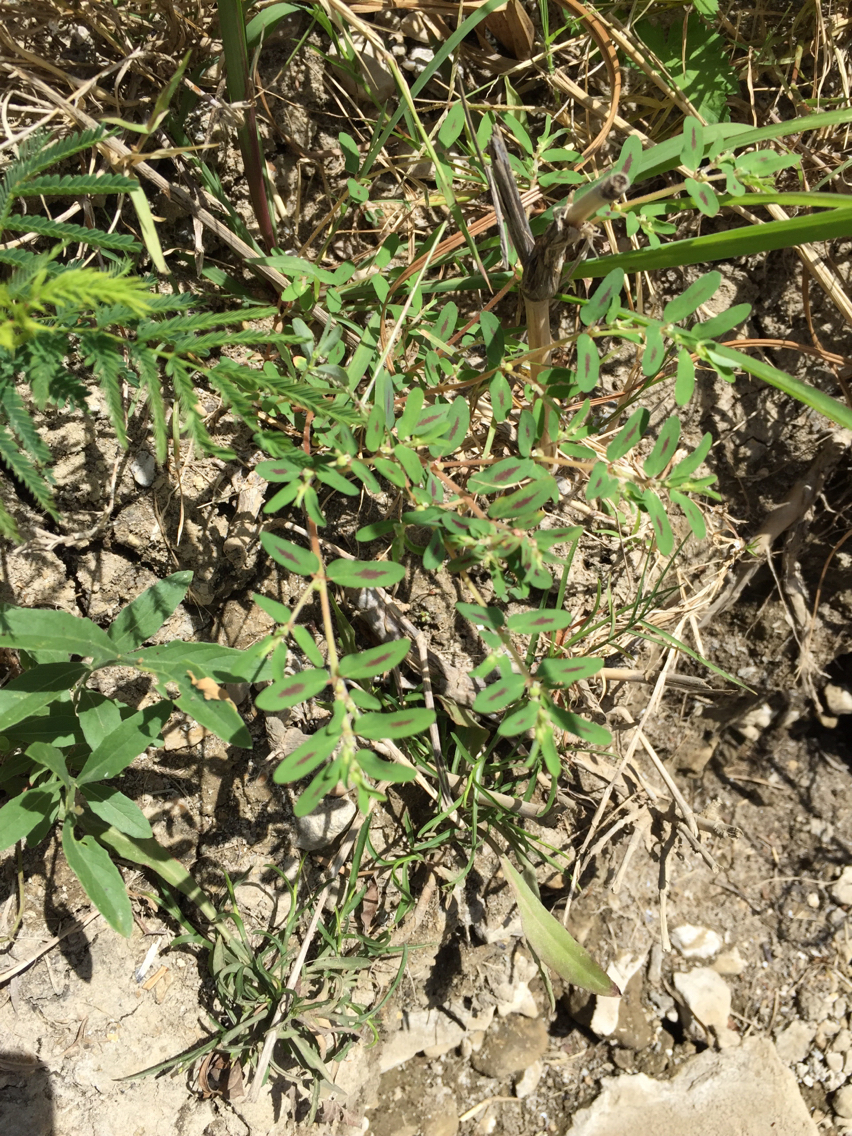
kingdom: Plantae
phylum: Tracheophyta
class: Magnoliopsida
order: Malpighiales
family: Euphorbiaceae
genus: Euphorbia
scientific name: Euphorbia maculata
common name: Spotted spurge
